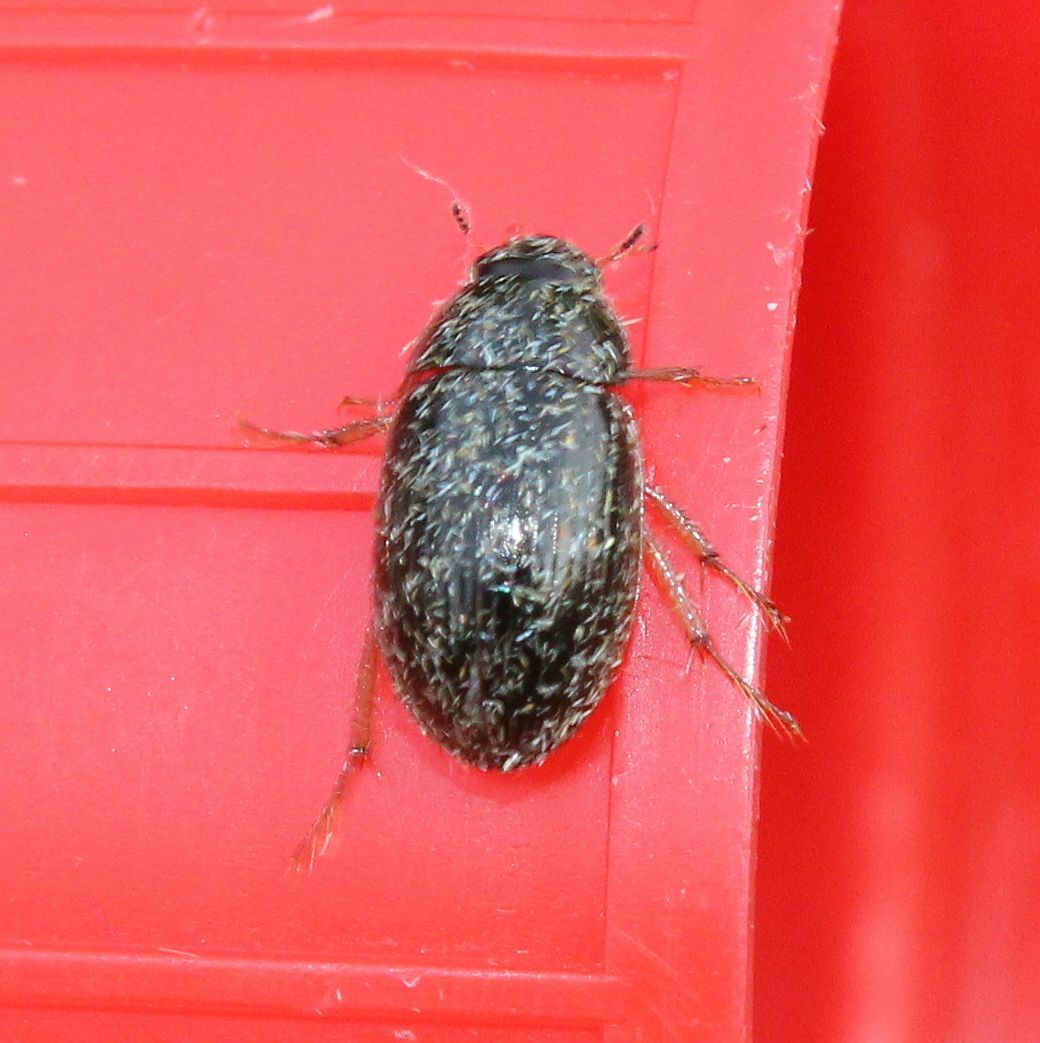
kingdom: Animalia
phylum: Arthropoda
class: Insecta
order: Coleoptera
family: Hydrophilidae
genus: Hydrobius
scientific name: Hydrobius
